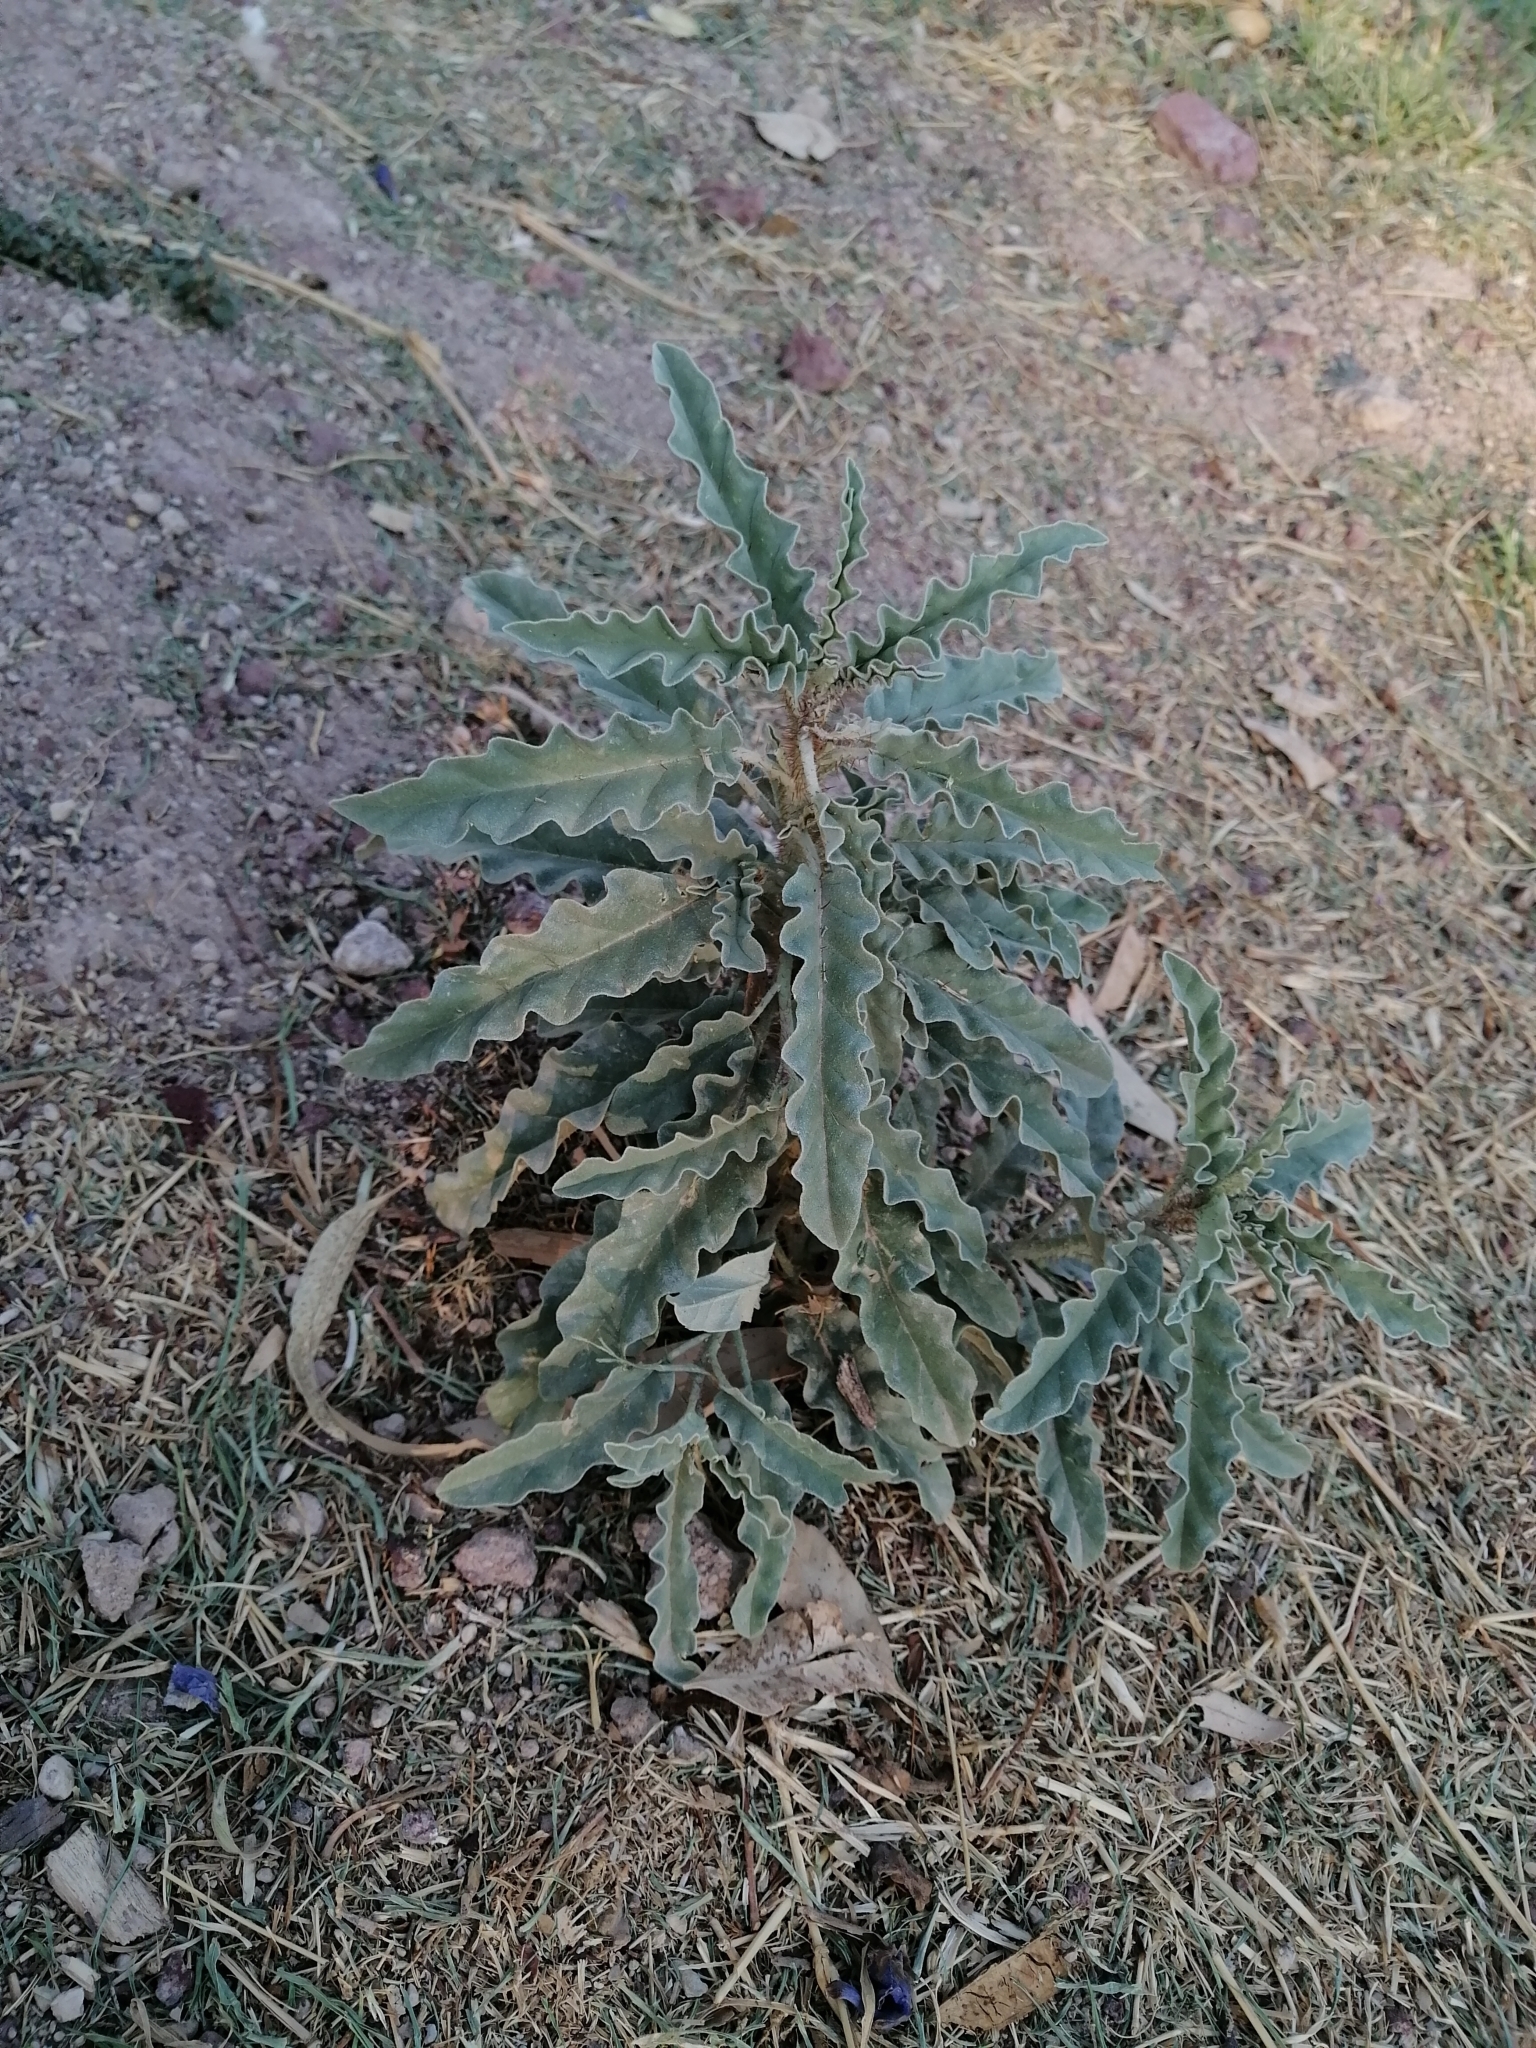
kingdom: Plantae
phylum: Tracheophyta
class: Magnoliopsida
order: Solanales
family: Solanaceae
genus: Solanum
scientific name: Solanum elaeagnifolium
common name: Silverleaf nightshade
